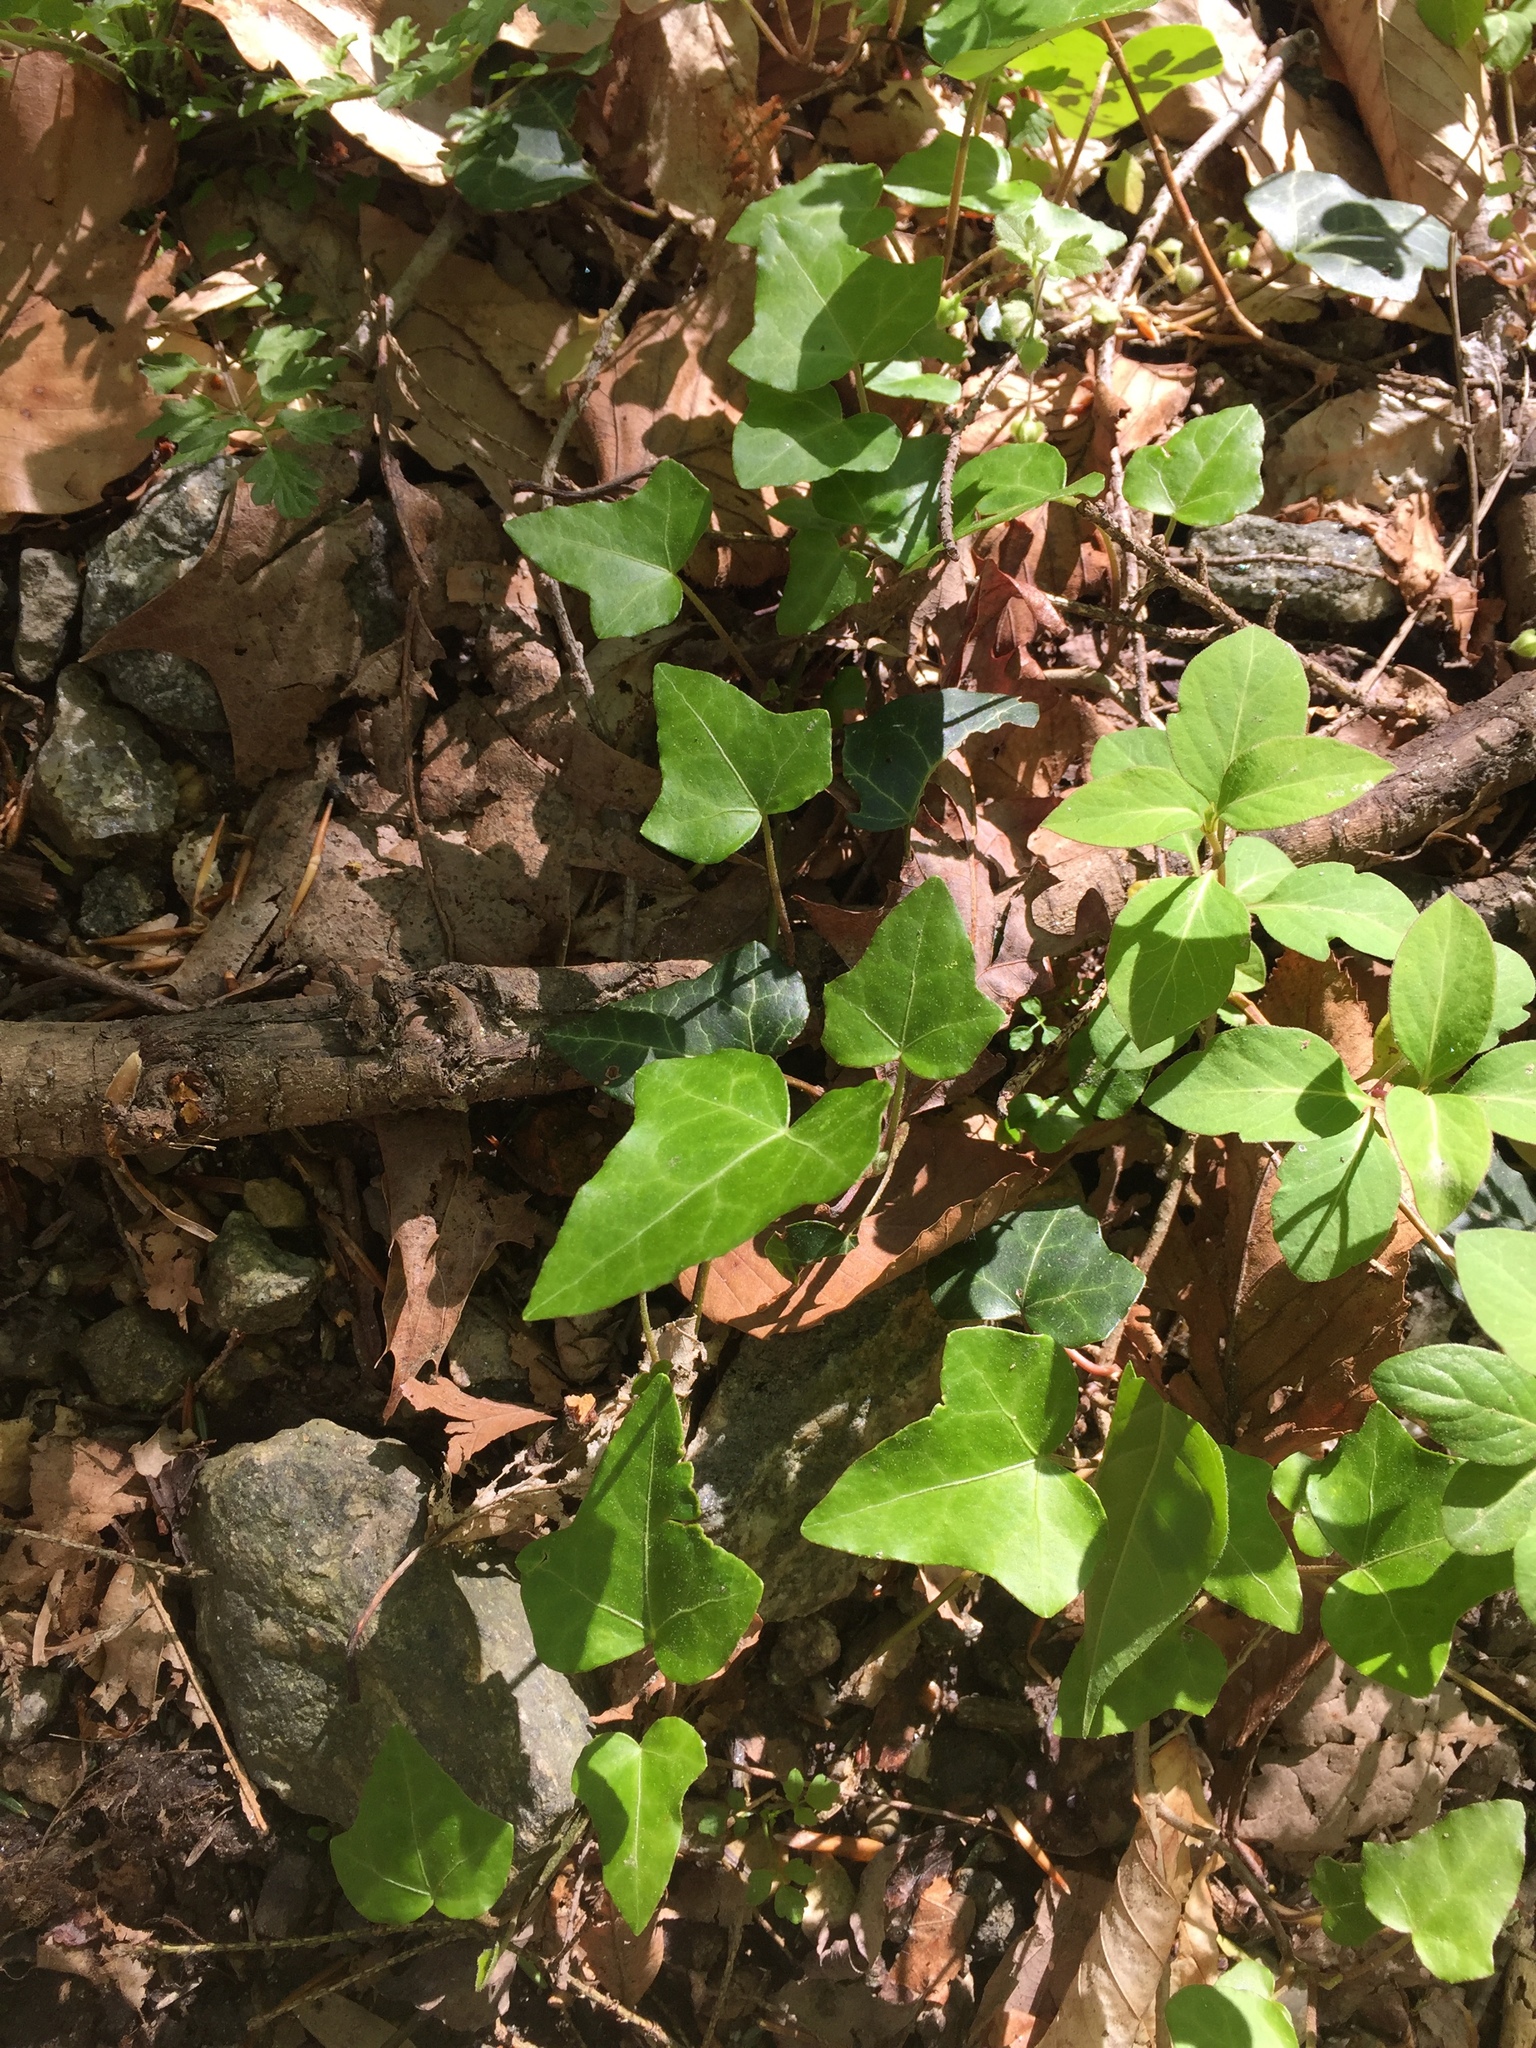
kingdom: Plantae
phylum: Tracheophyta
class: Magnoliopsida
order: Apiales
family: Araliaceae
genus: Hedera
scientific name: Hedera helix
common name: Ivy
